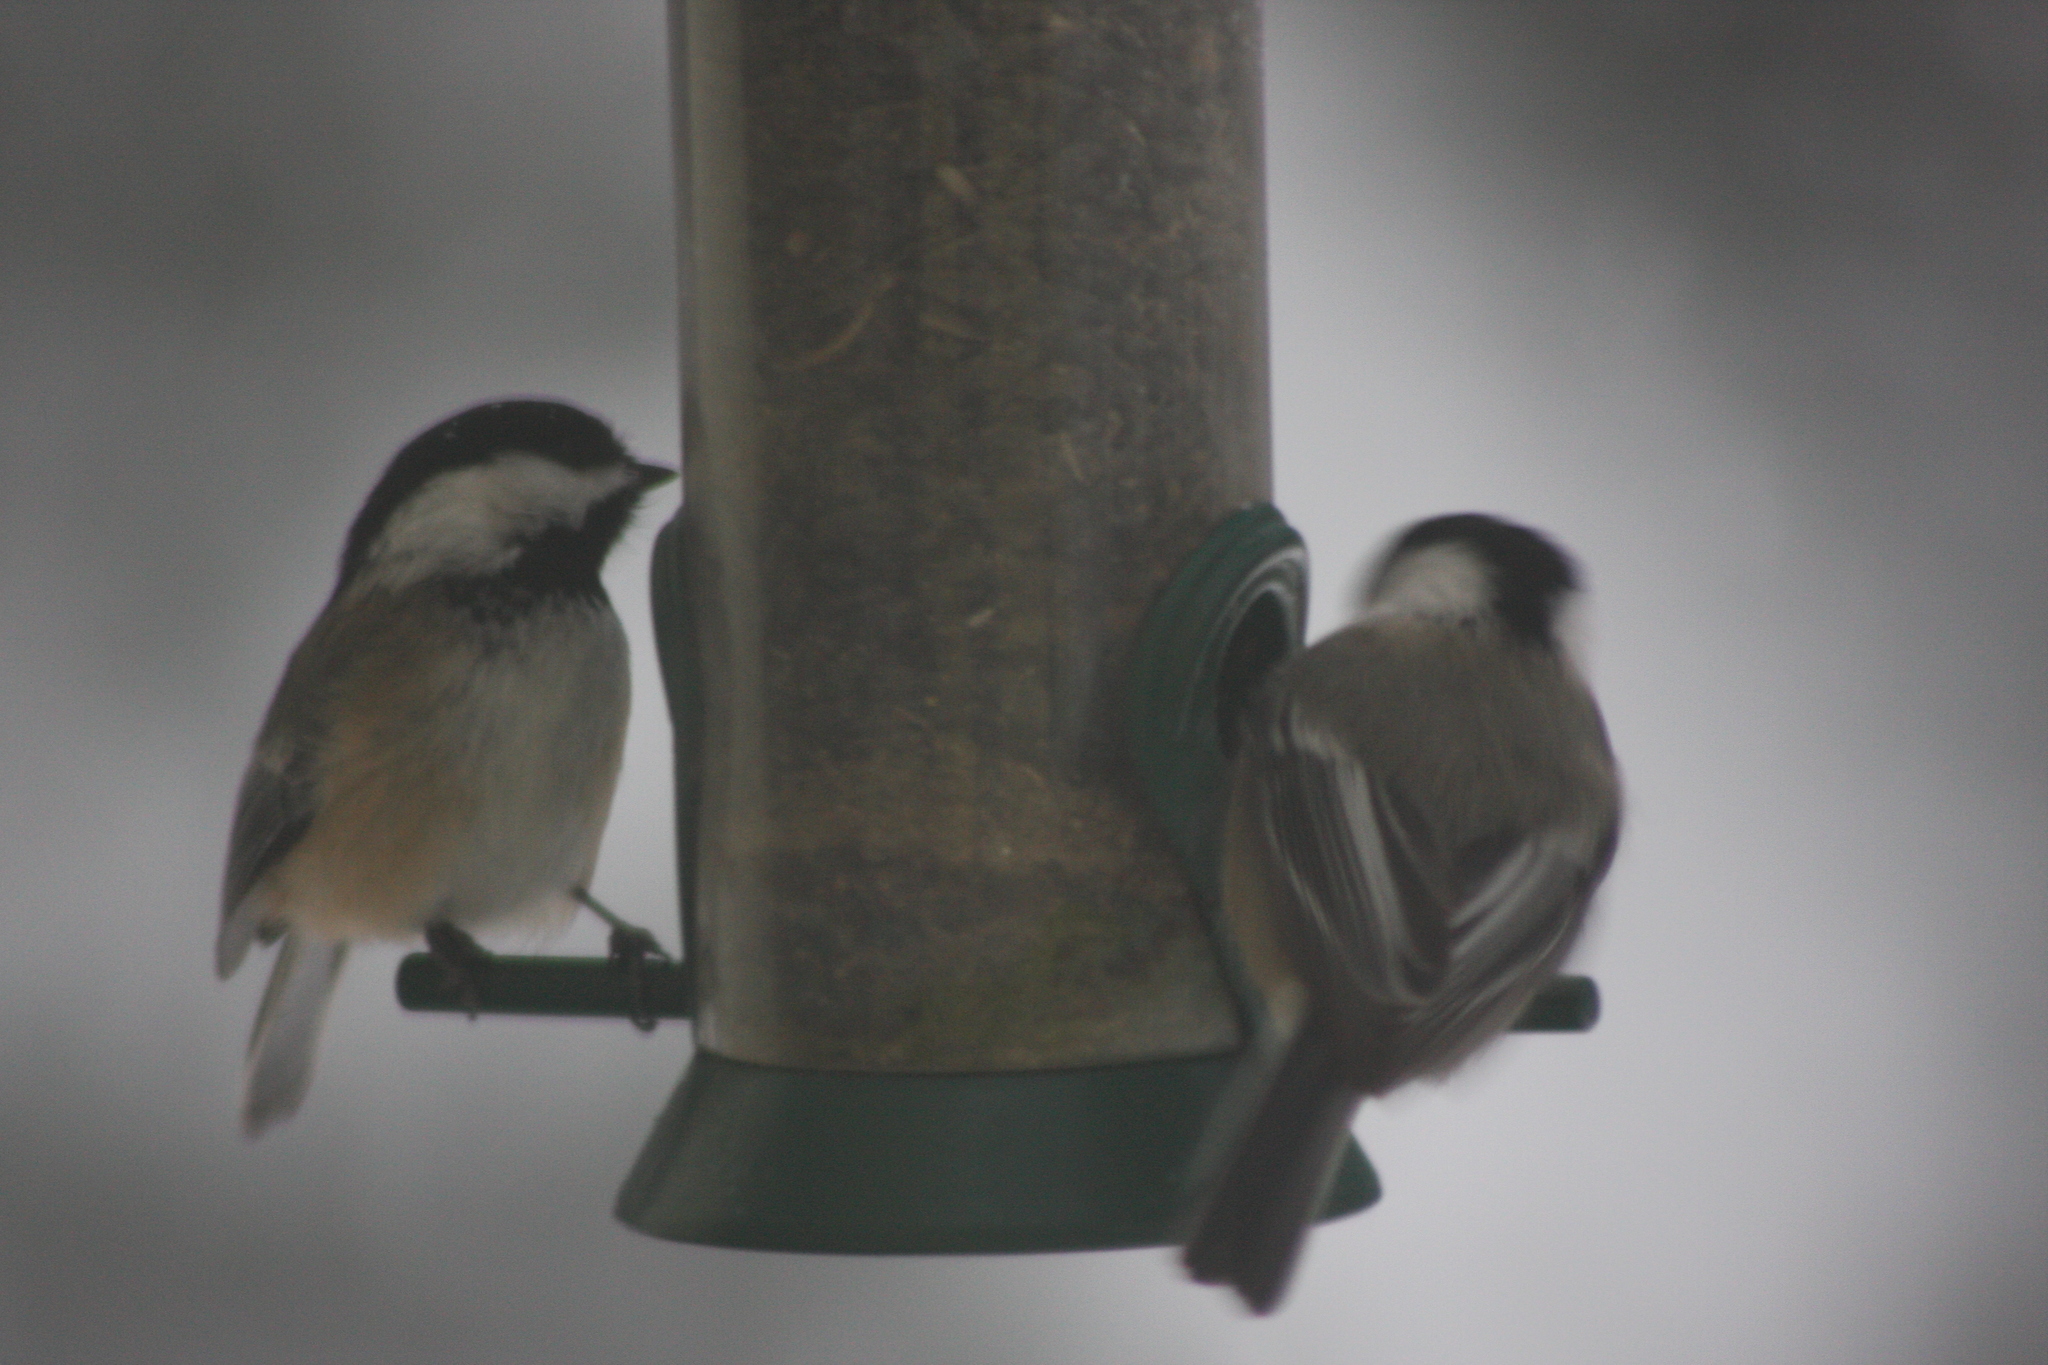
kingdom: Animalia
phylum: Chordata
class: Aves
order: Passeriformes
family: Paridae
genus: Poecile
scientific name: Poecile atricapillus
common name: Black-capped chickadee
